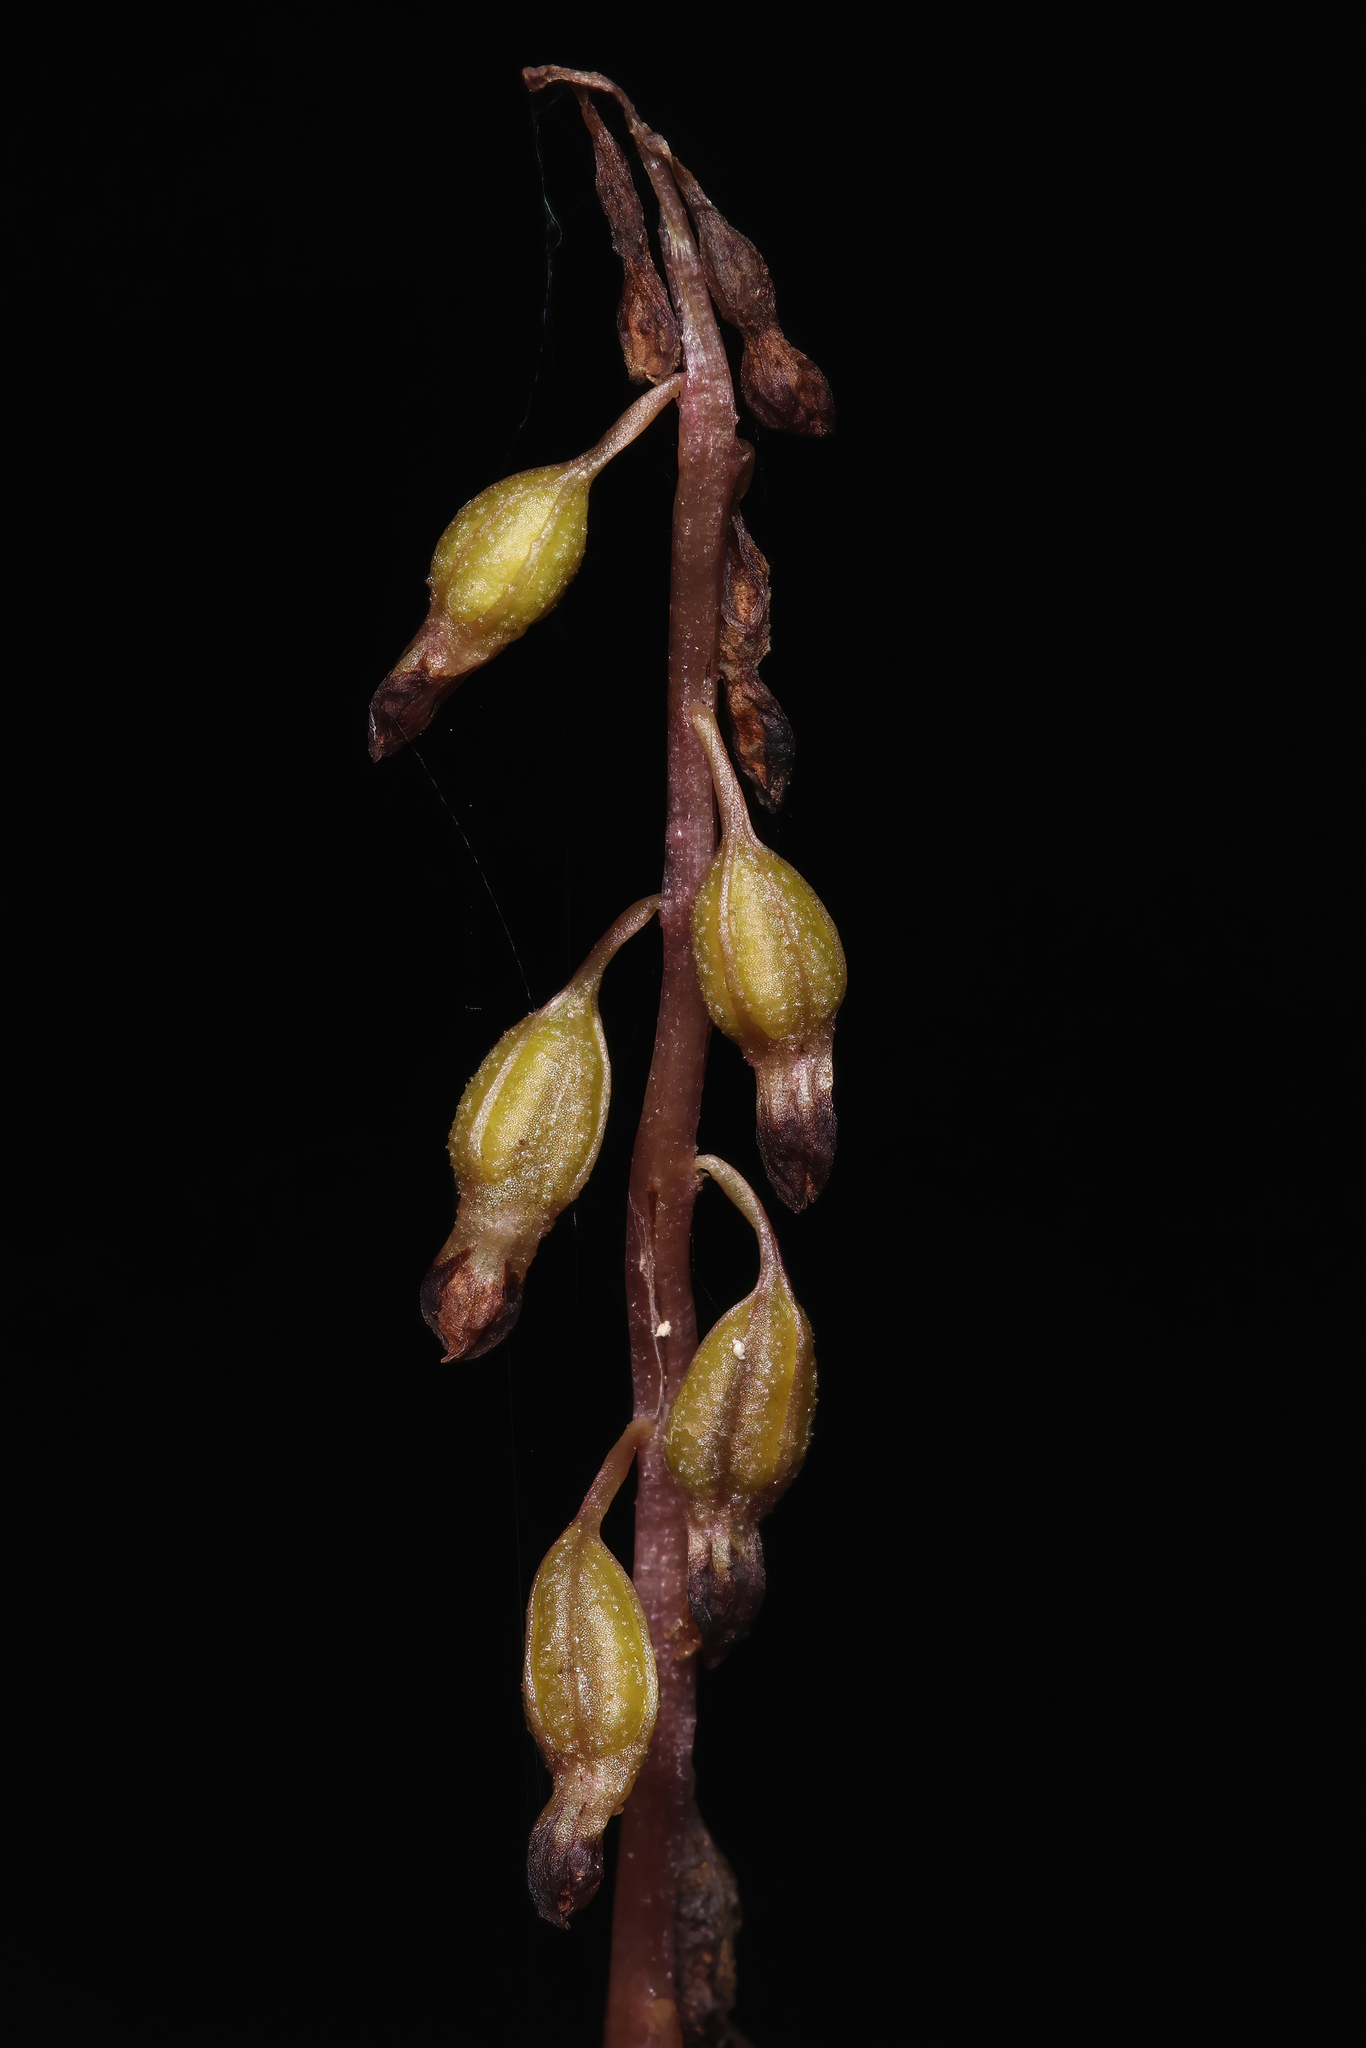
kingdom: Plantae
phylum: Tracheophyta
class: Liliopsida
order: Asparagales
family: Orchidaceae
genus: Corallorhiza
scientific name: Corallorhiza odontorhiza
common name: Autumn coralroot
